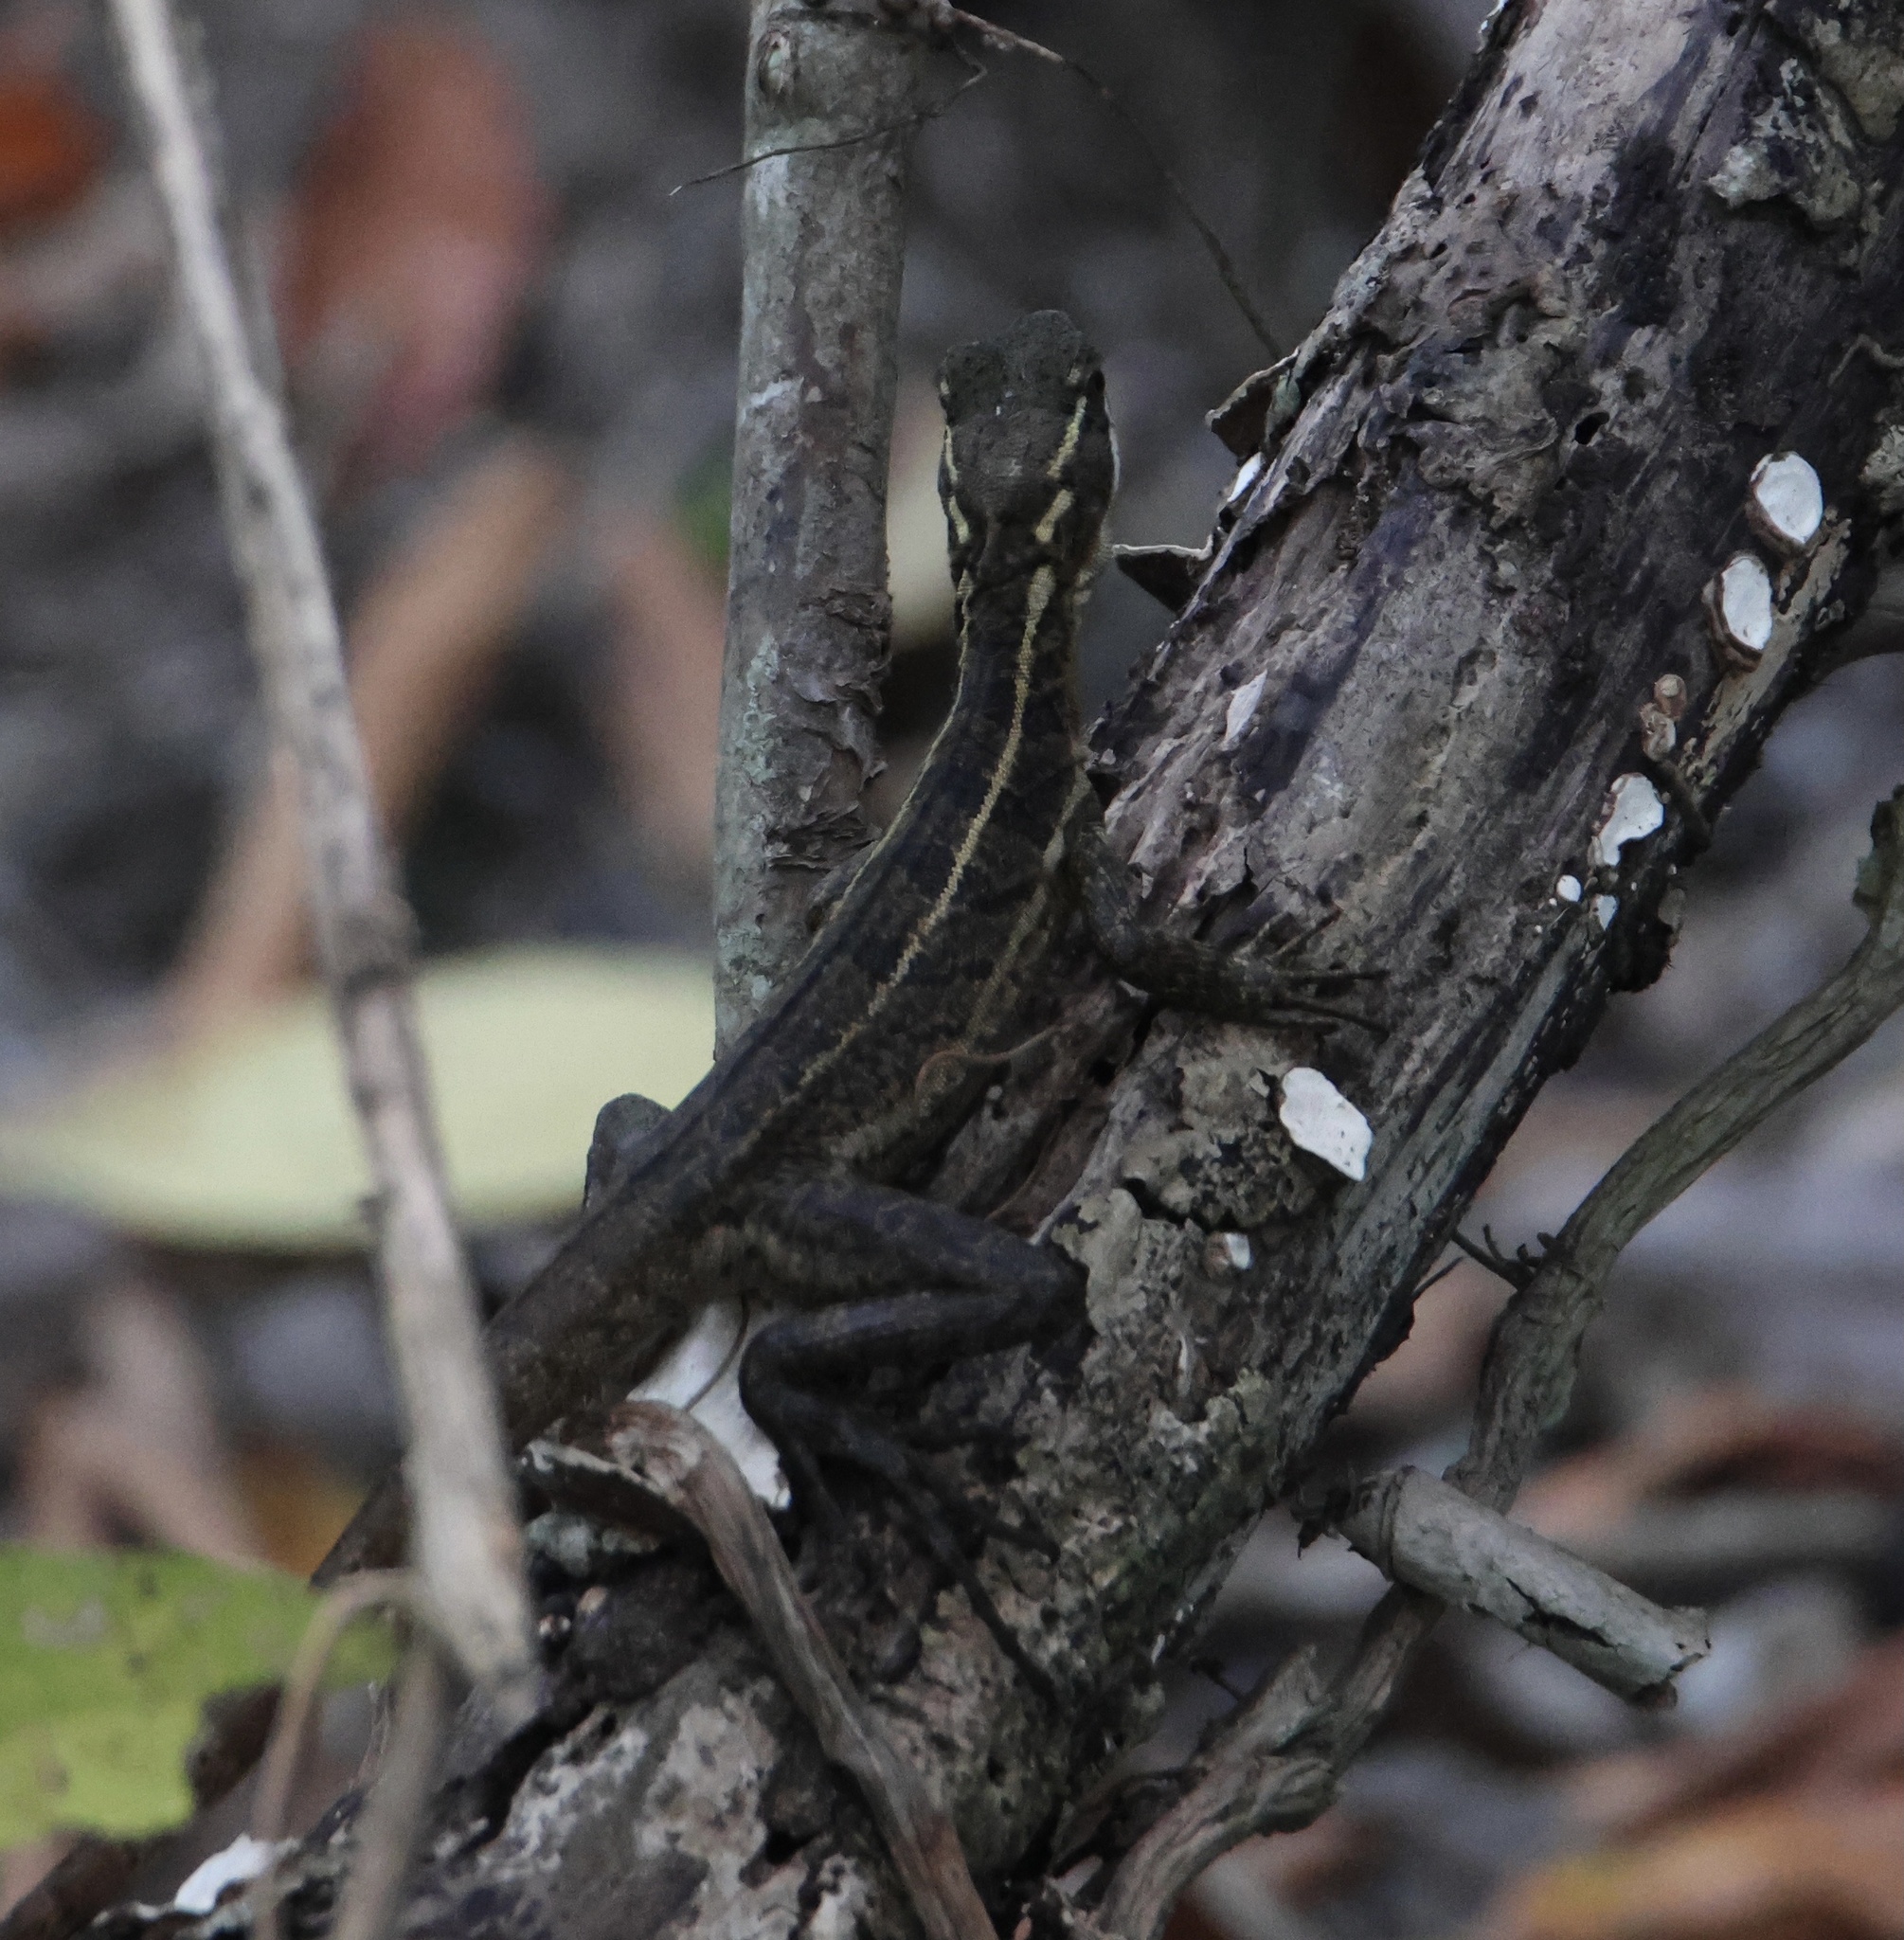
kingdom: Animalia
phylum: Chordata
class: Squamata
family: Corytophanidae
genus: Basiliscus
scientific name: Basiliscus basiliscus
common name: Common basilisk
